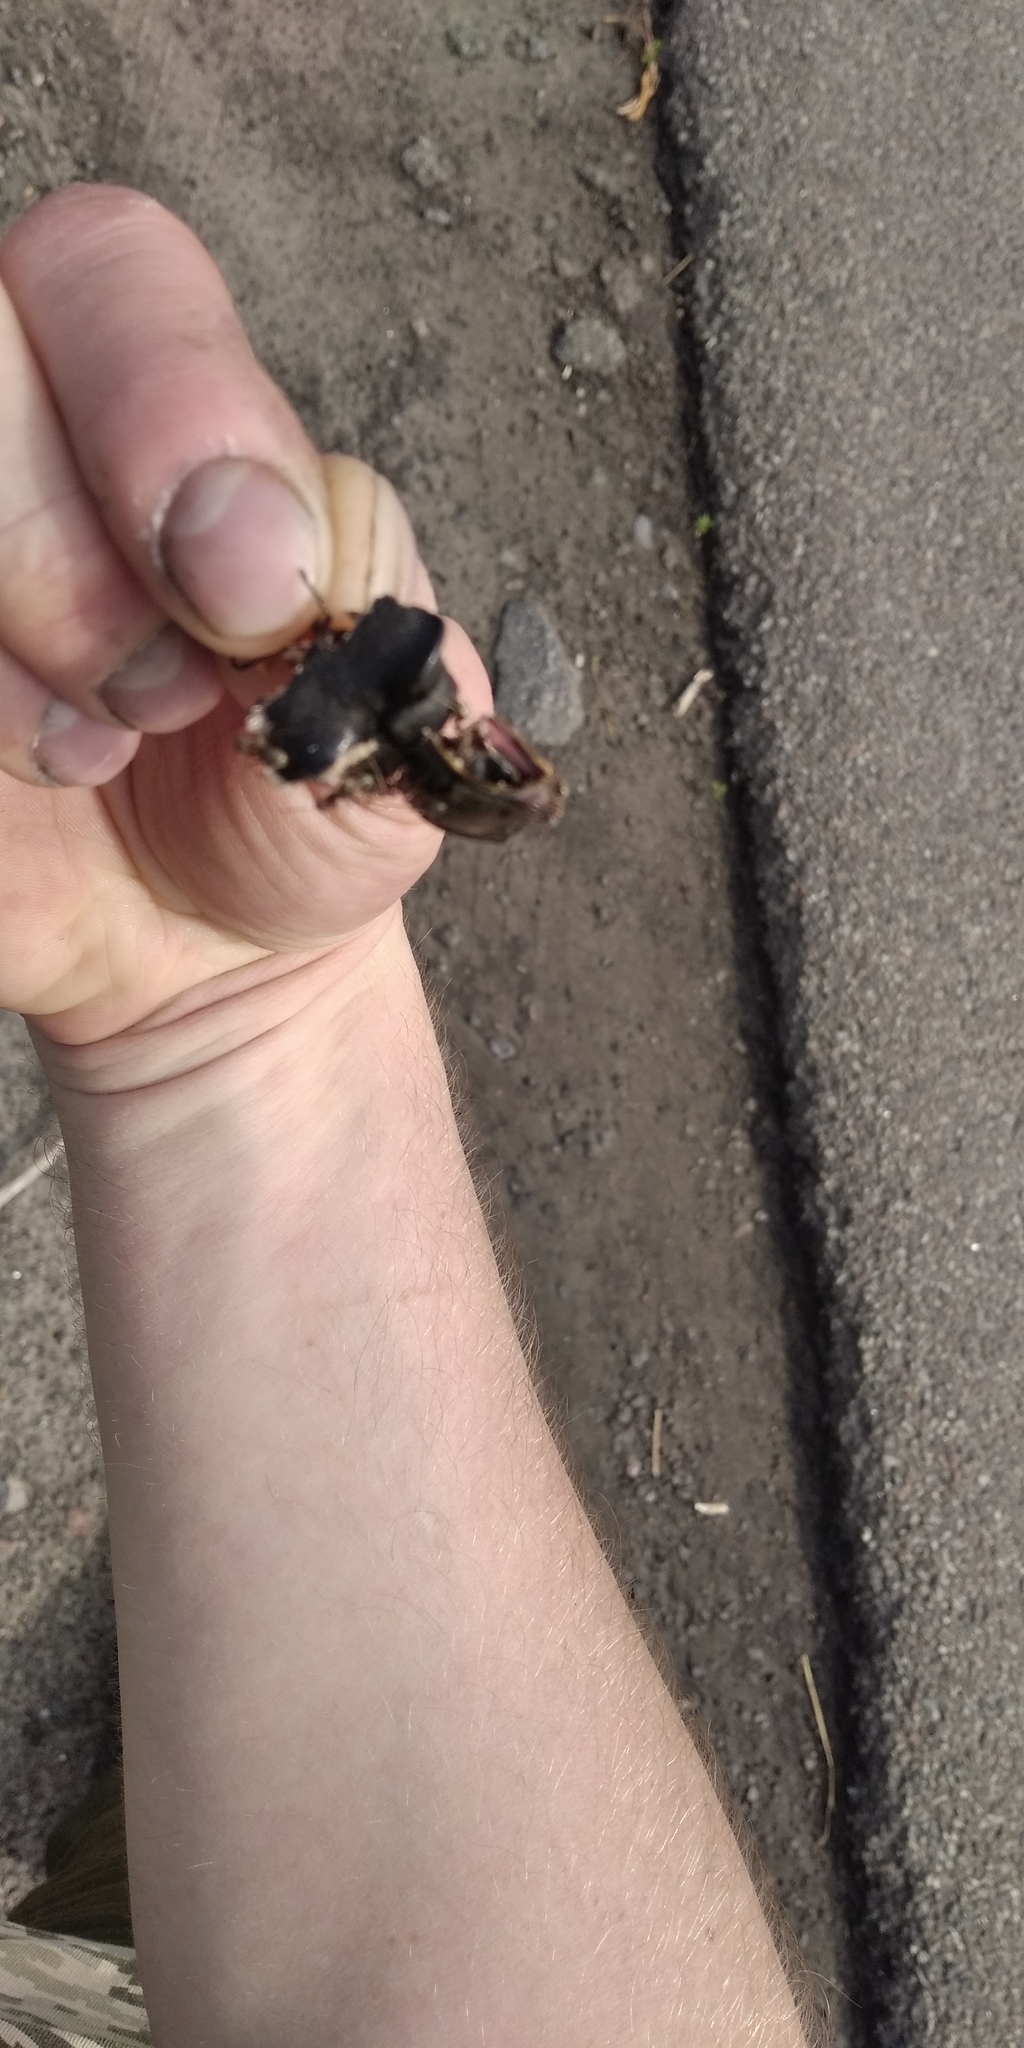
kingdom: Animalia
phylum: Arthropoda
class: Insecta
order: Coleoptera
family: Lucanidae
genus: Lucanus
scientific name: Lucanus cervus
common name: Stag beetle
